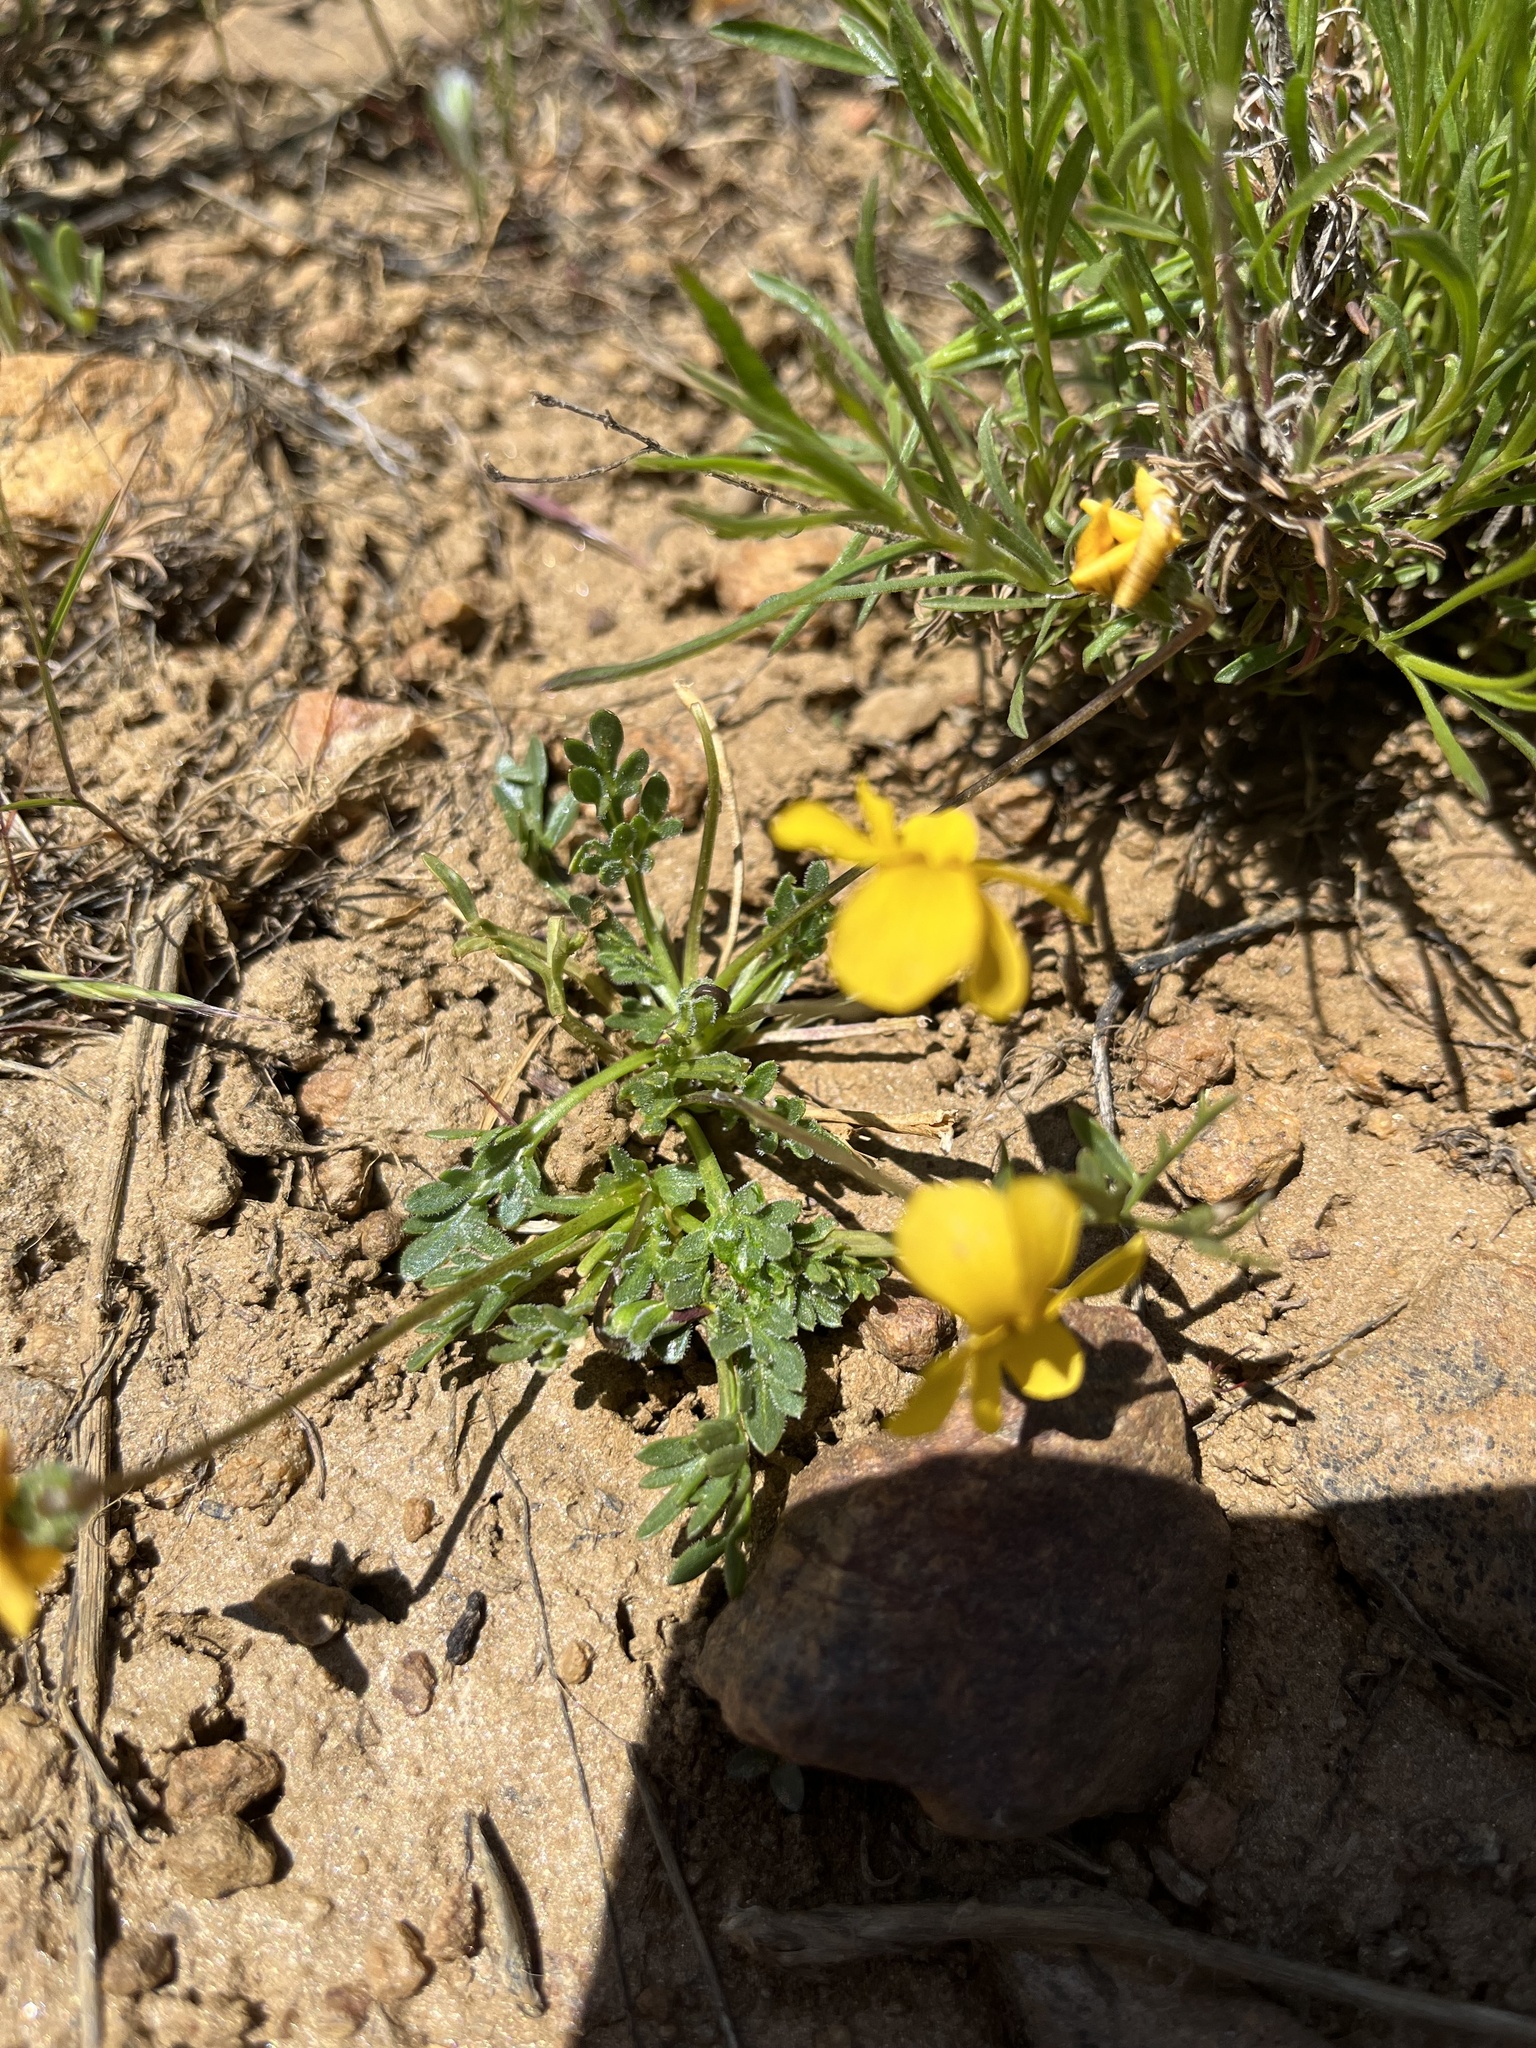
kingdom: Plantae
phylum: Tracheophyta
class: Magnoliopsida
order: Malpighiales
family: Violaceae
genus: Viola
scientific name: Viola douglasii
